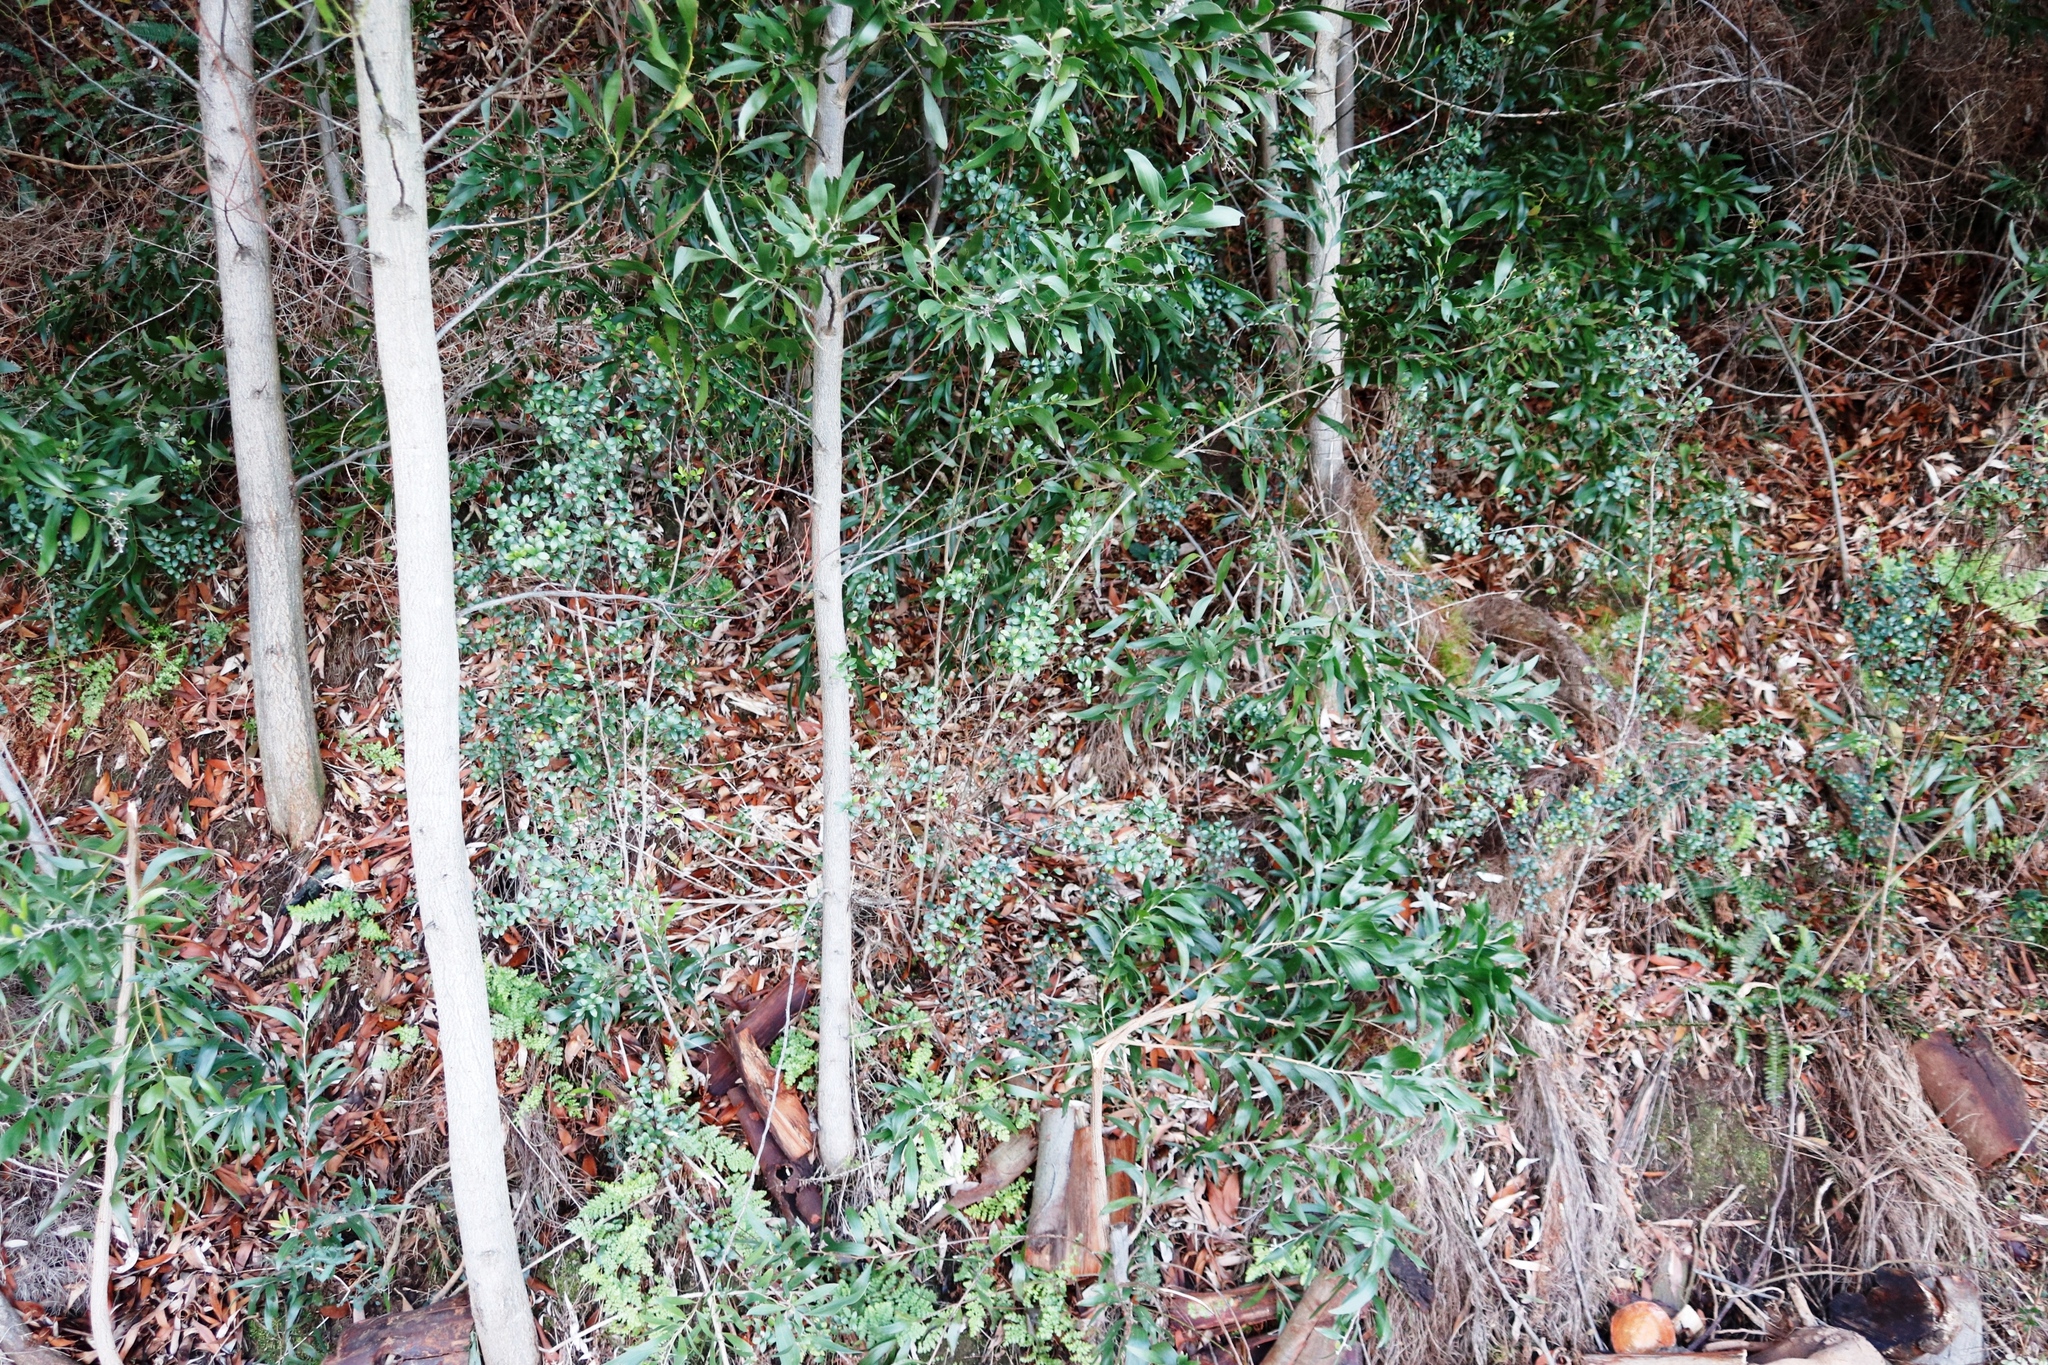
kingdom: Plantae
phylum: Tracheophyta
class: Magnoliopsida
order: Ericales
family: Primulaceae
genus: Myrsine
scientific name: Myrsine africana
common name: African-boxwood
